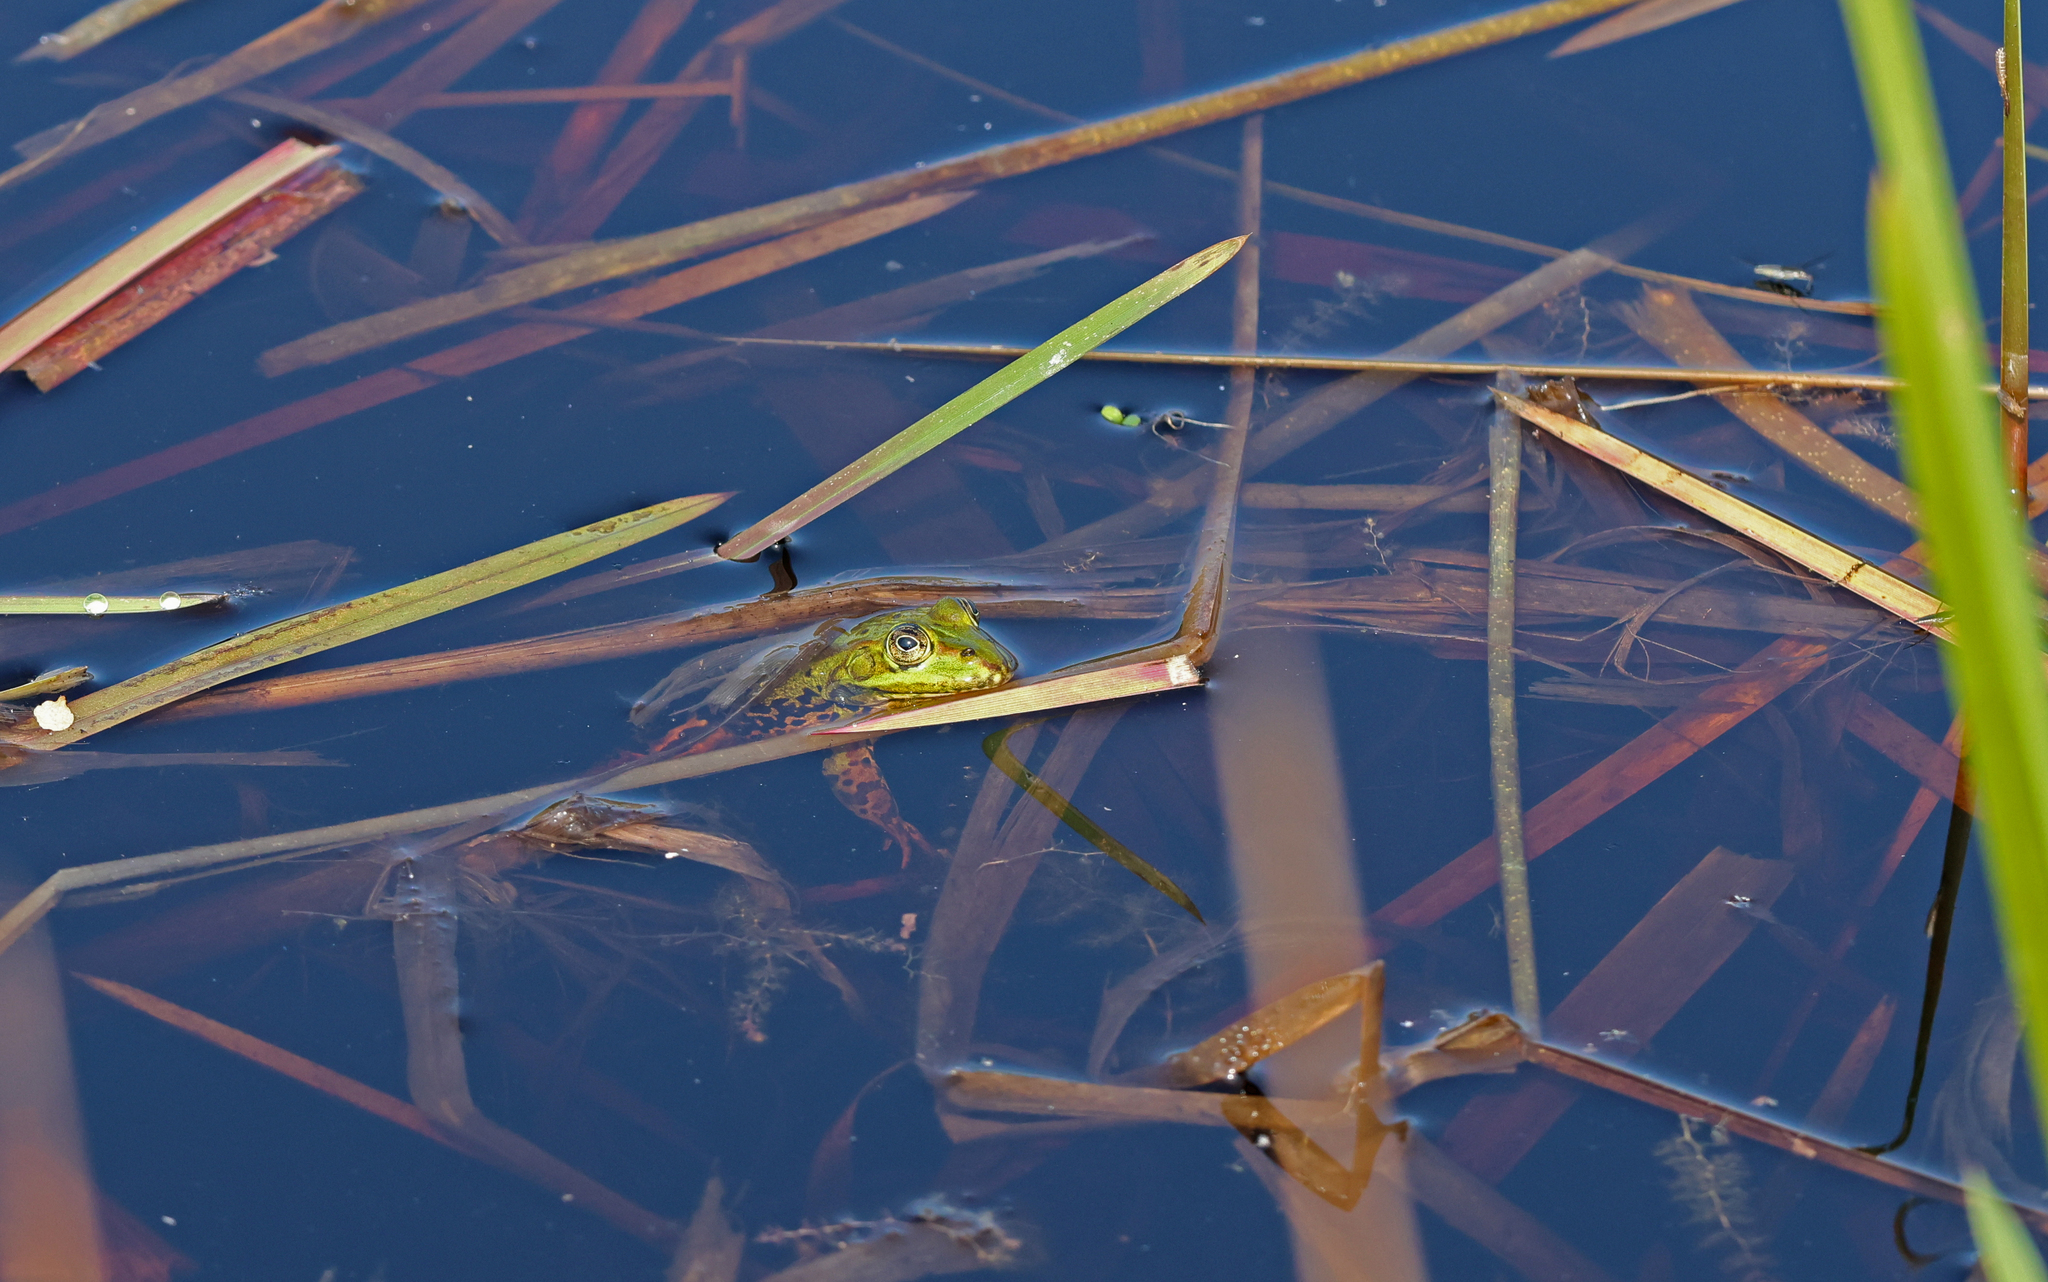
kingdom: Animalia
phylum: Chordata
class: Amphibia
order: Anura
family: Ranidae
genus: Pelophylax
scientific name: Pelophylax
